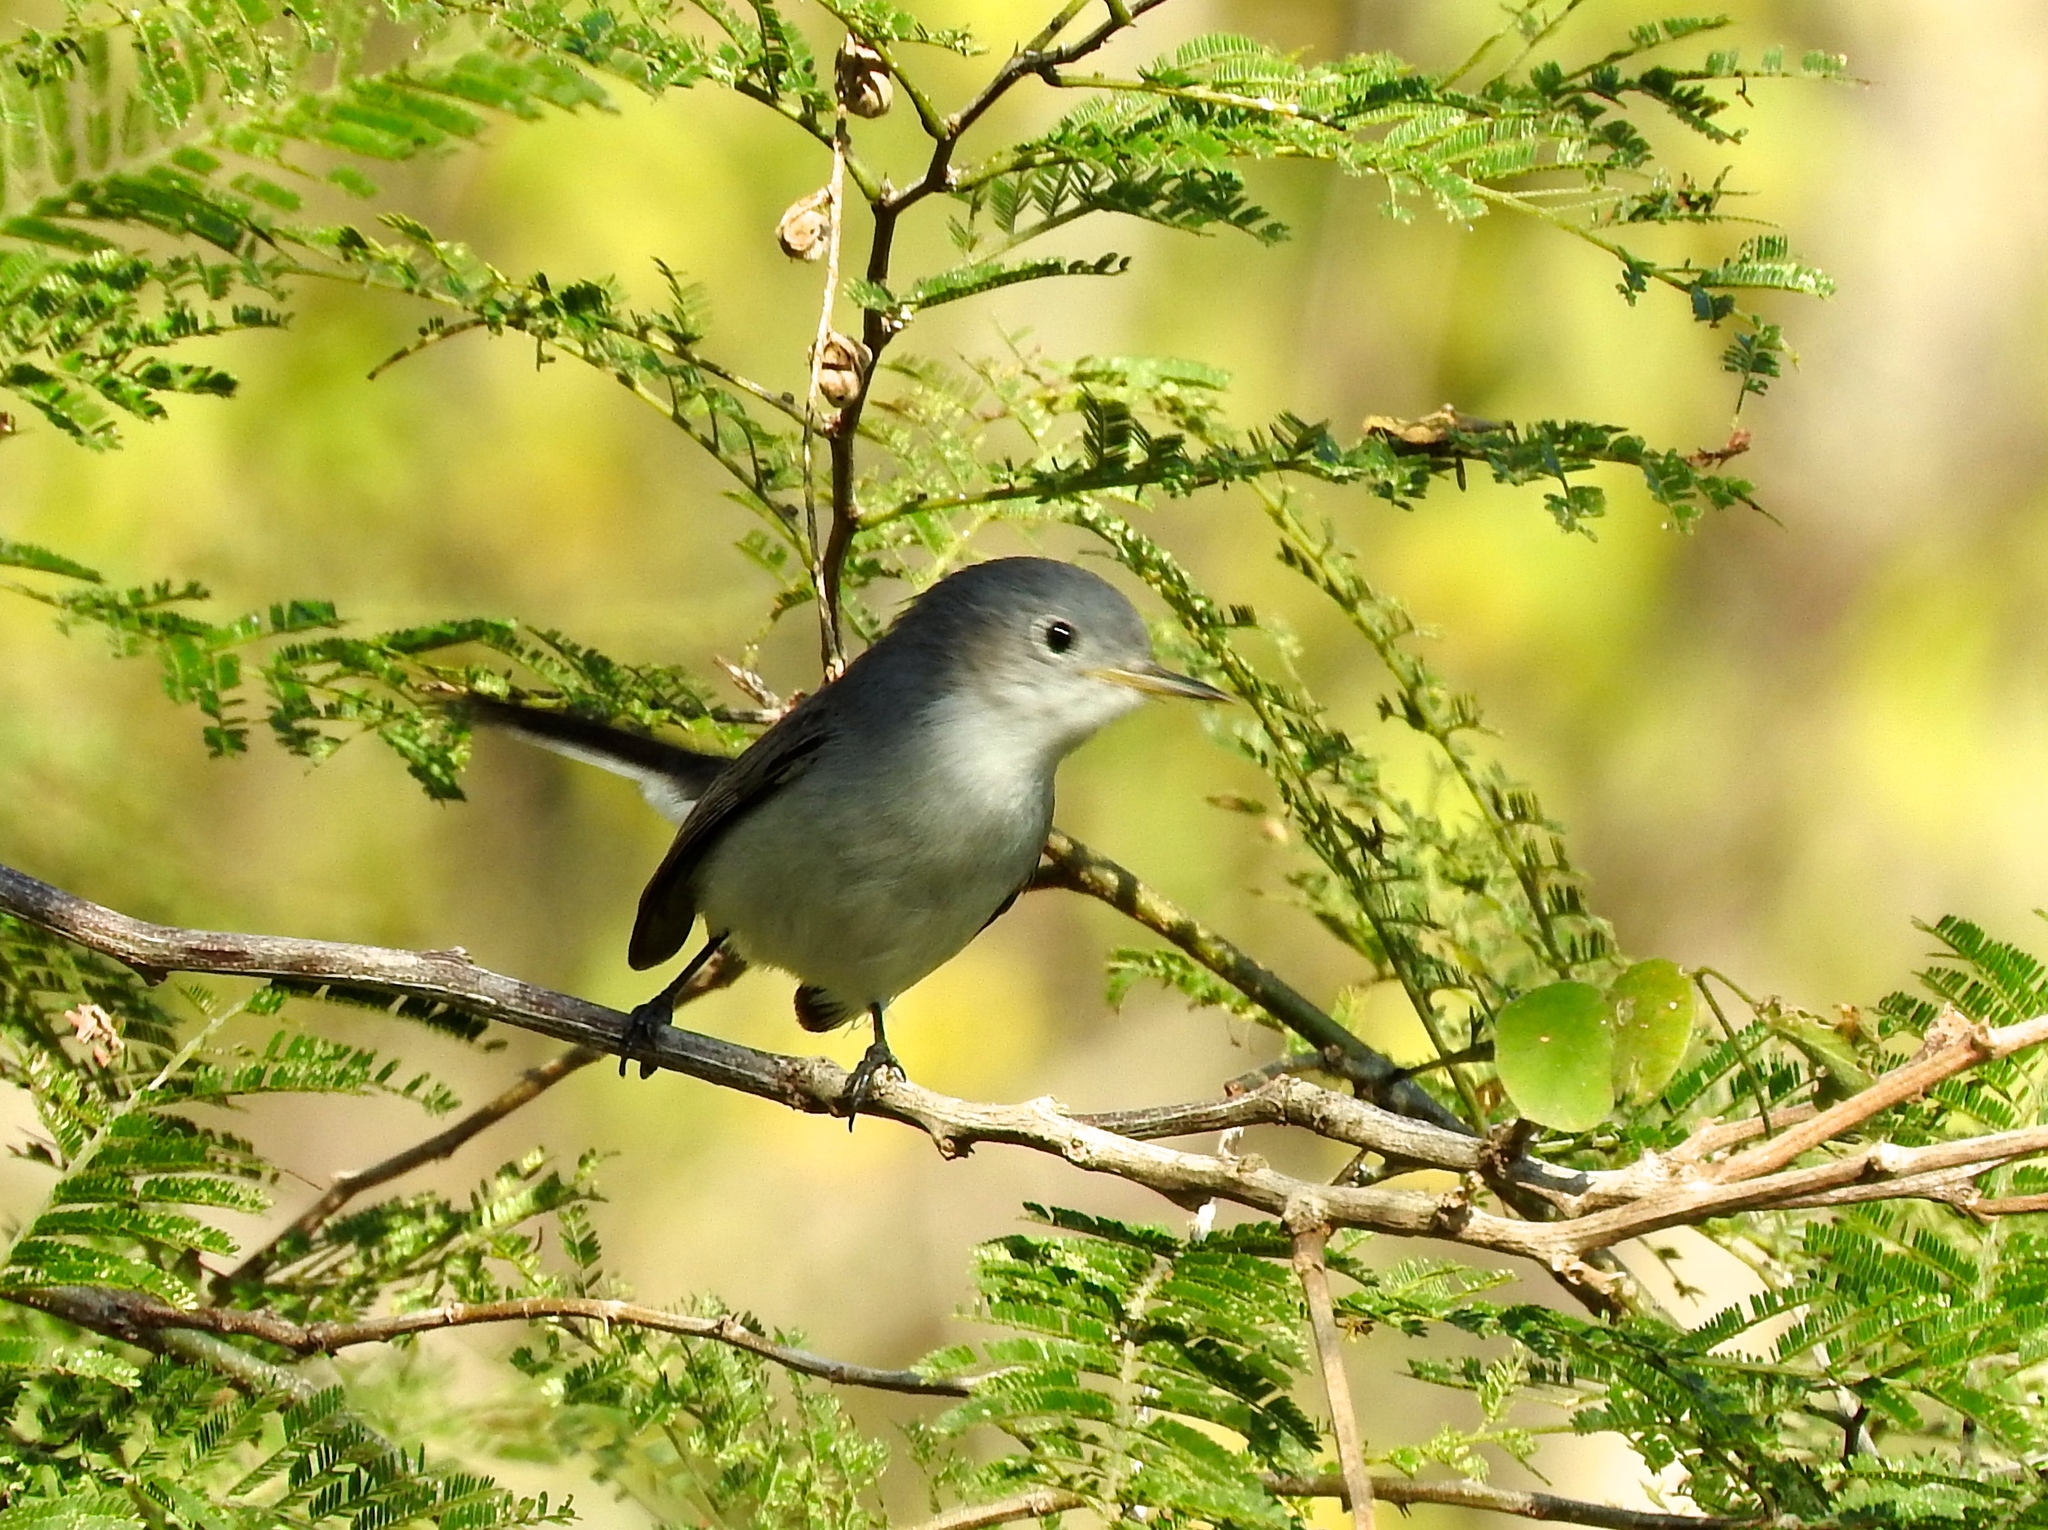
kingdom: Animalia
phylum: Chordata
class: Aves
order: Passeriformes
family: Polioptilidae
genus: Polioptila
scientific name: Polioptila caerulea
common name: Blue-gray gnatcatcher
